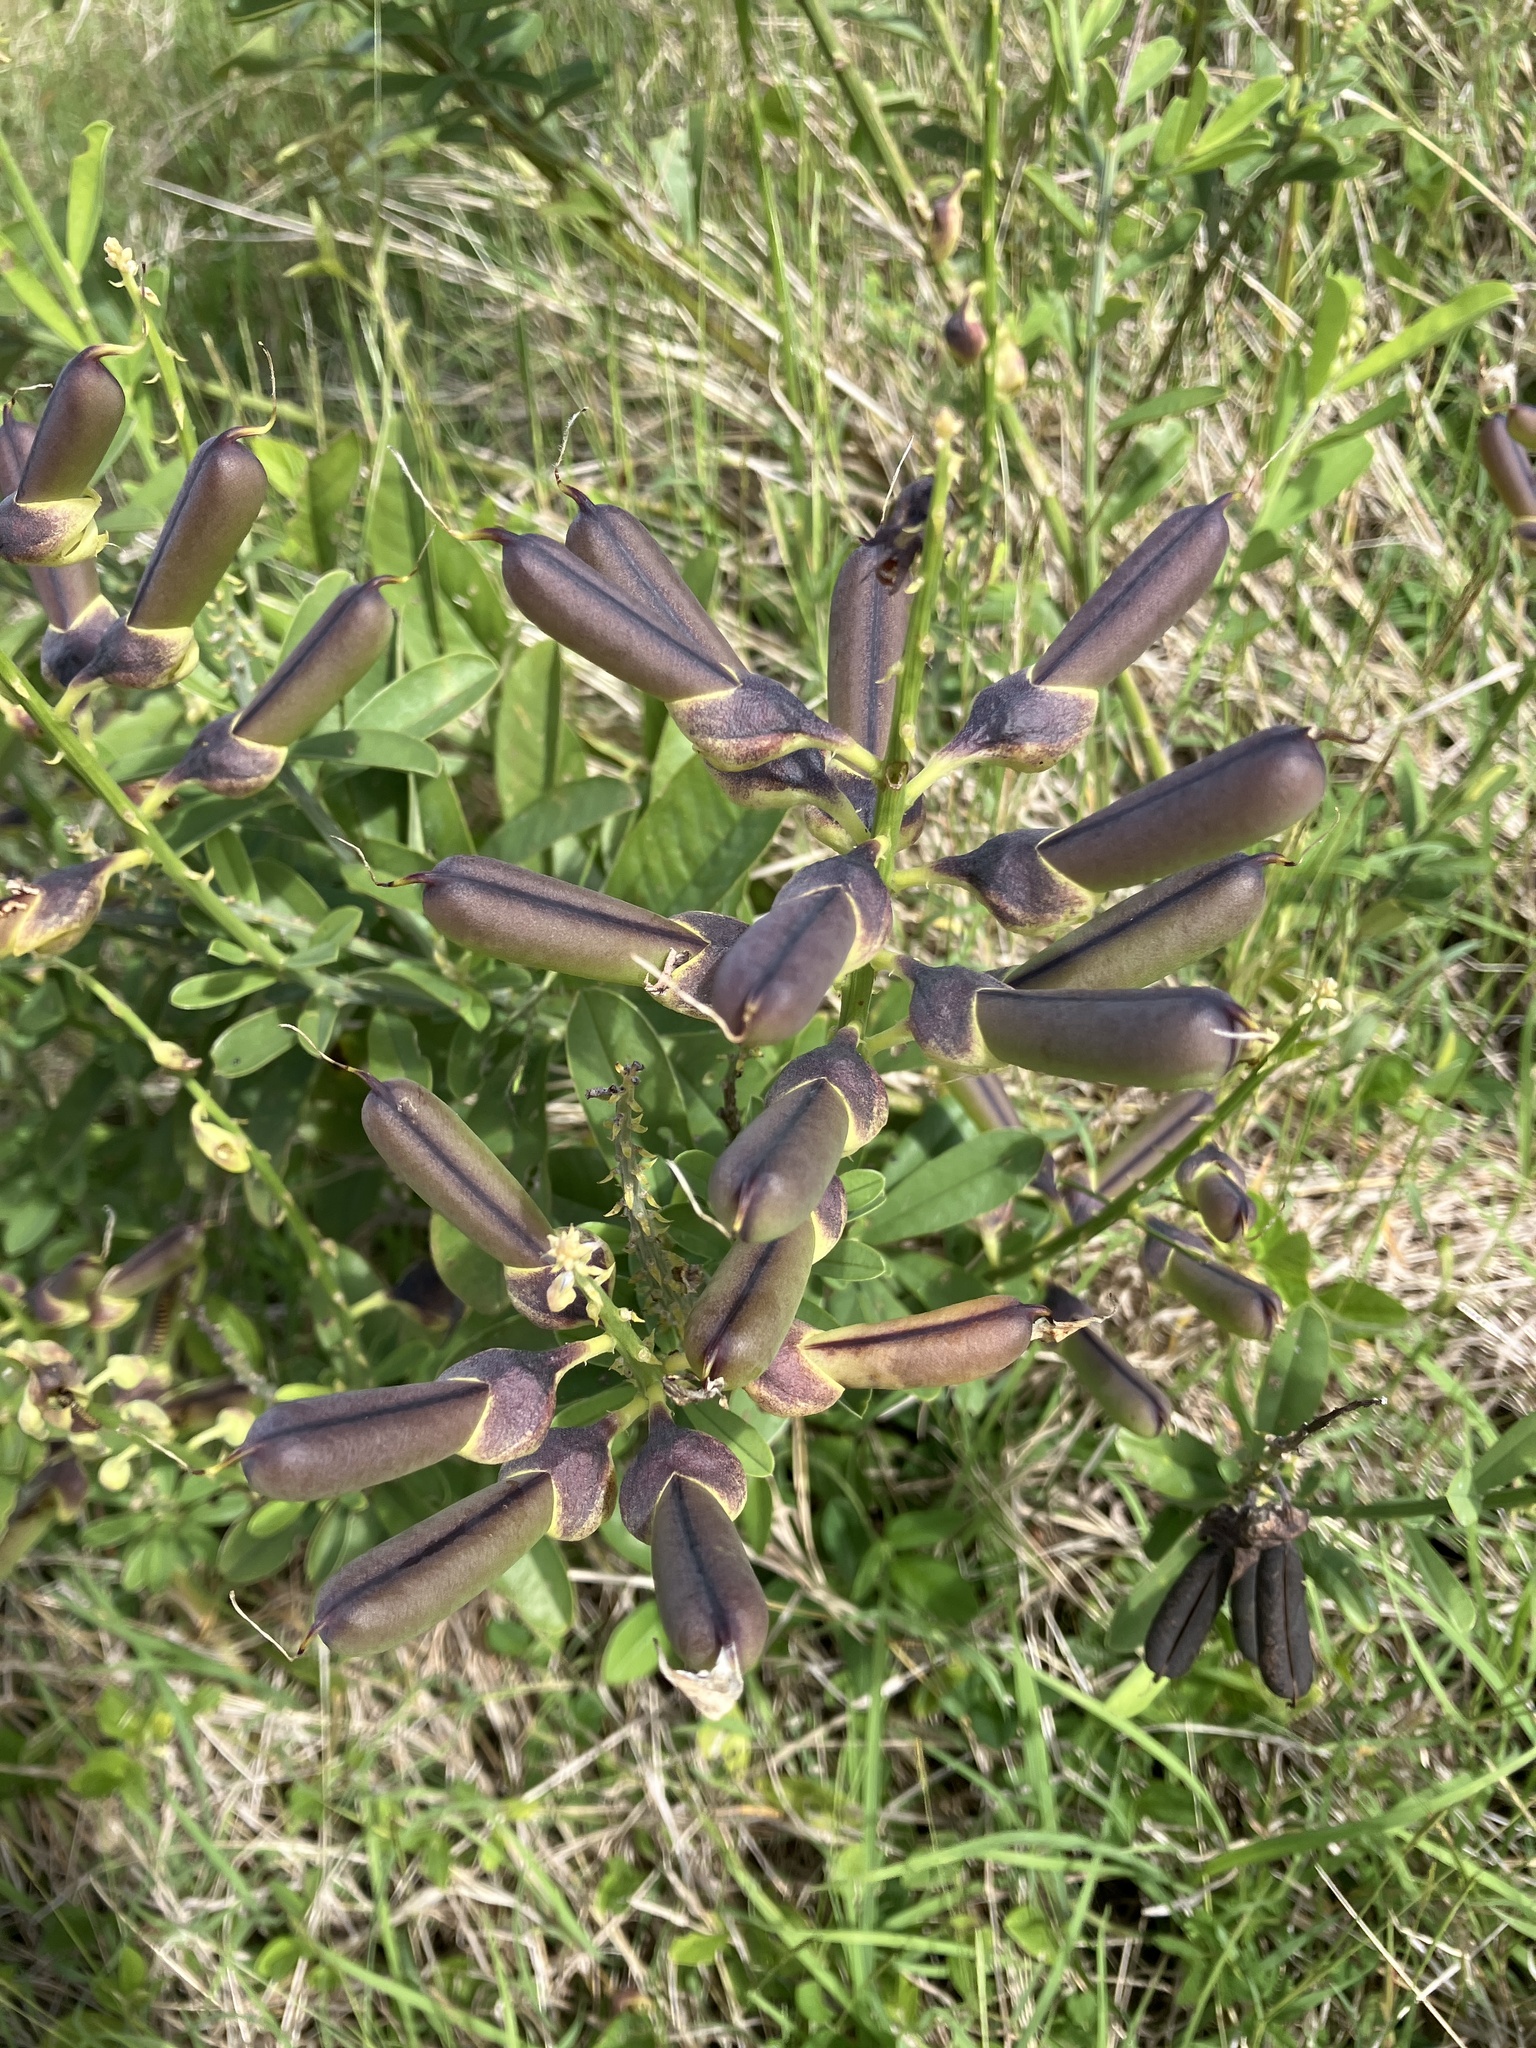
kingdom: Plantae
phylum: Tracheophyta
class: Magnoliopsida
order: Fabales
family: Fabaceae
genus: Crotalaria
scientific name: Crotalaria retusa
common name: Rattleweed
